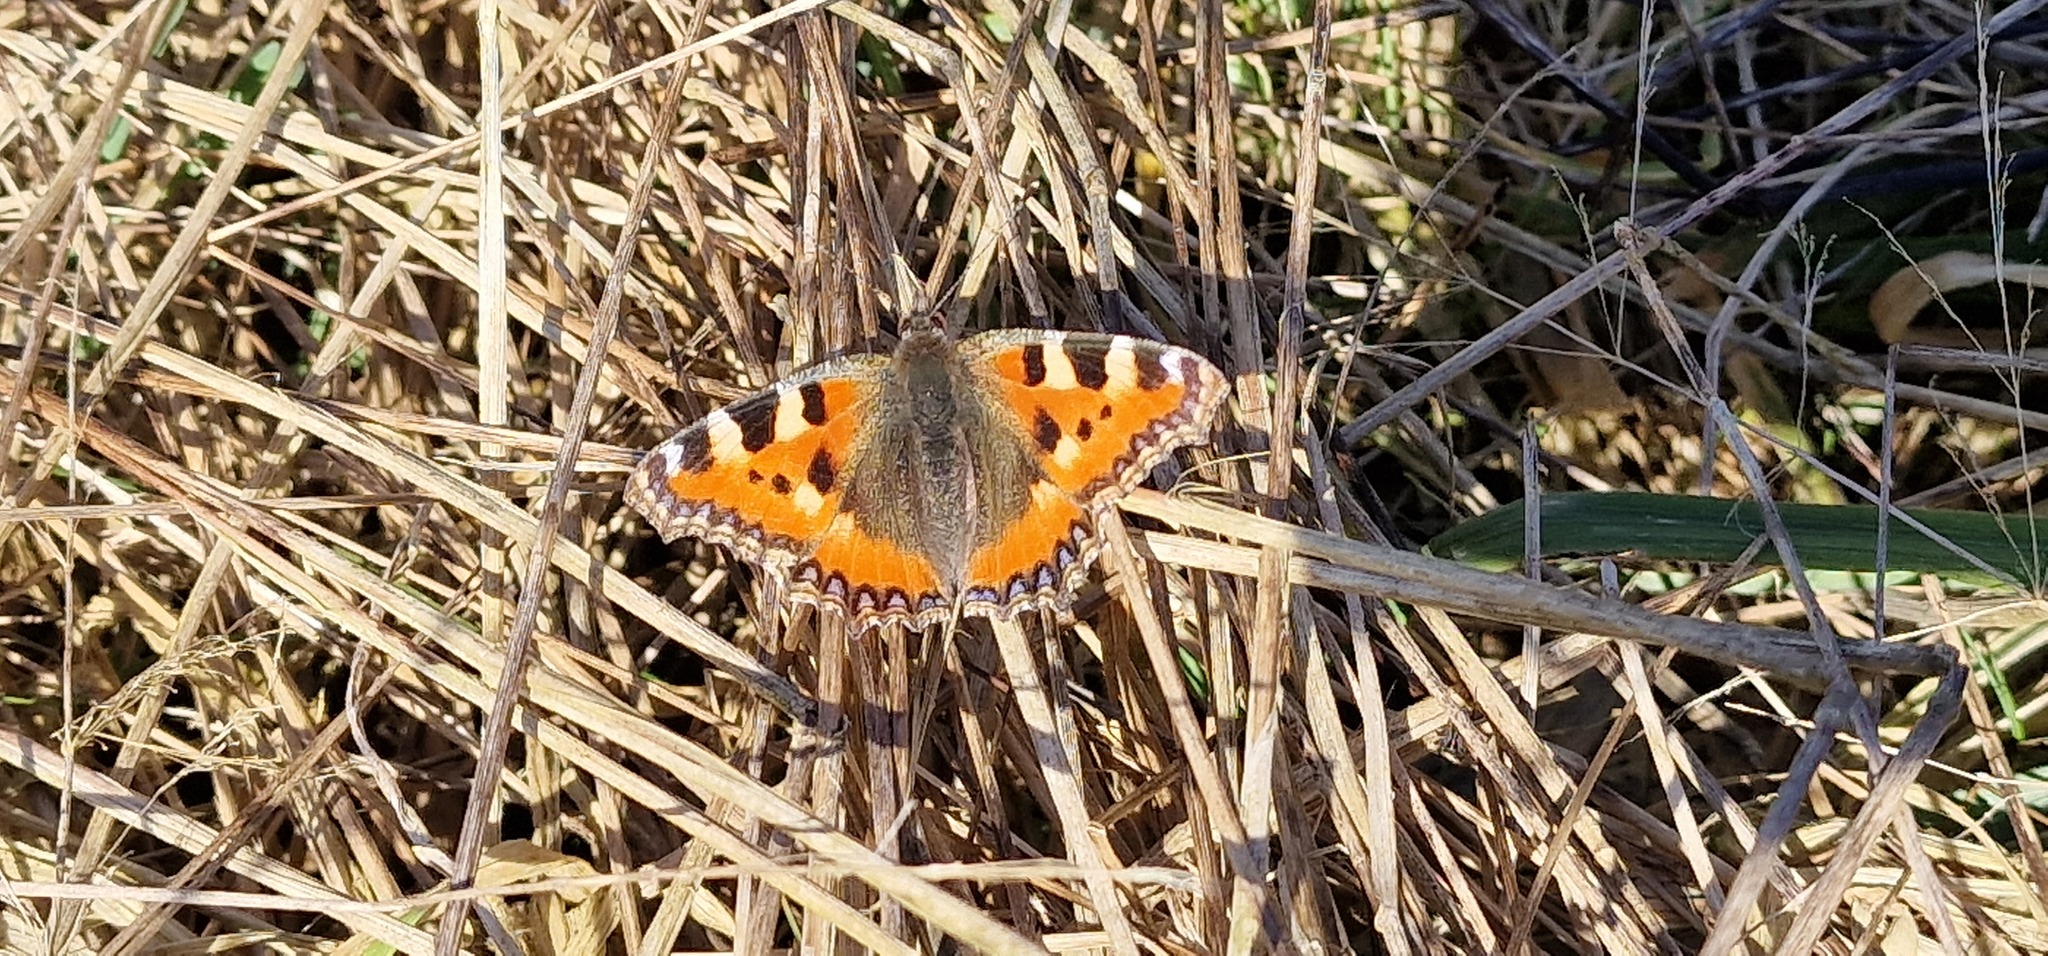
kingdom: Animalia
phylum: Arthropoda
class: Insecta
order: Lepidoptera
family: Nymphalidae
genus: Aglais
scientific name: Aglais urticae
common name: Small tortoiseshell
